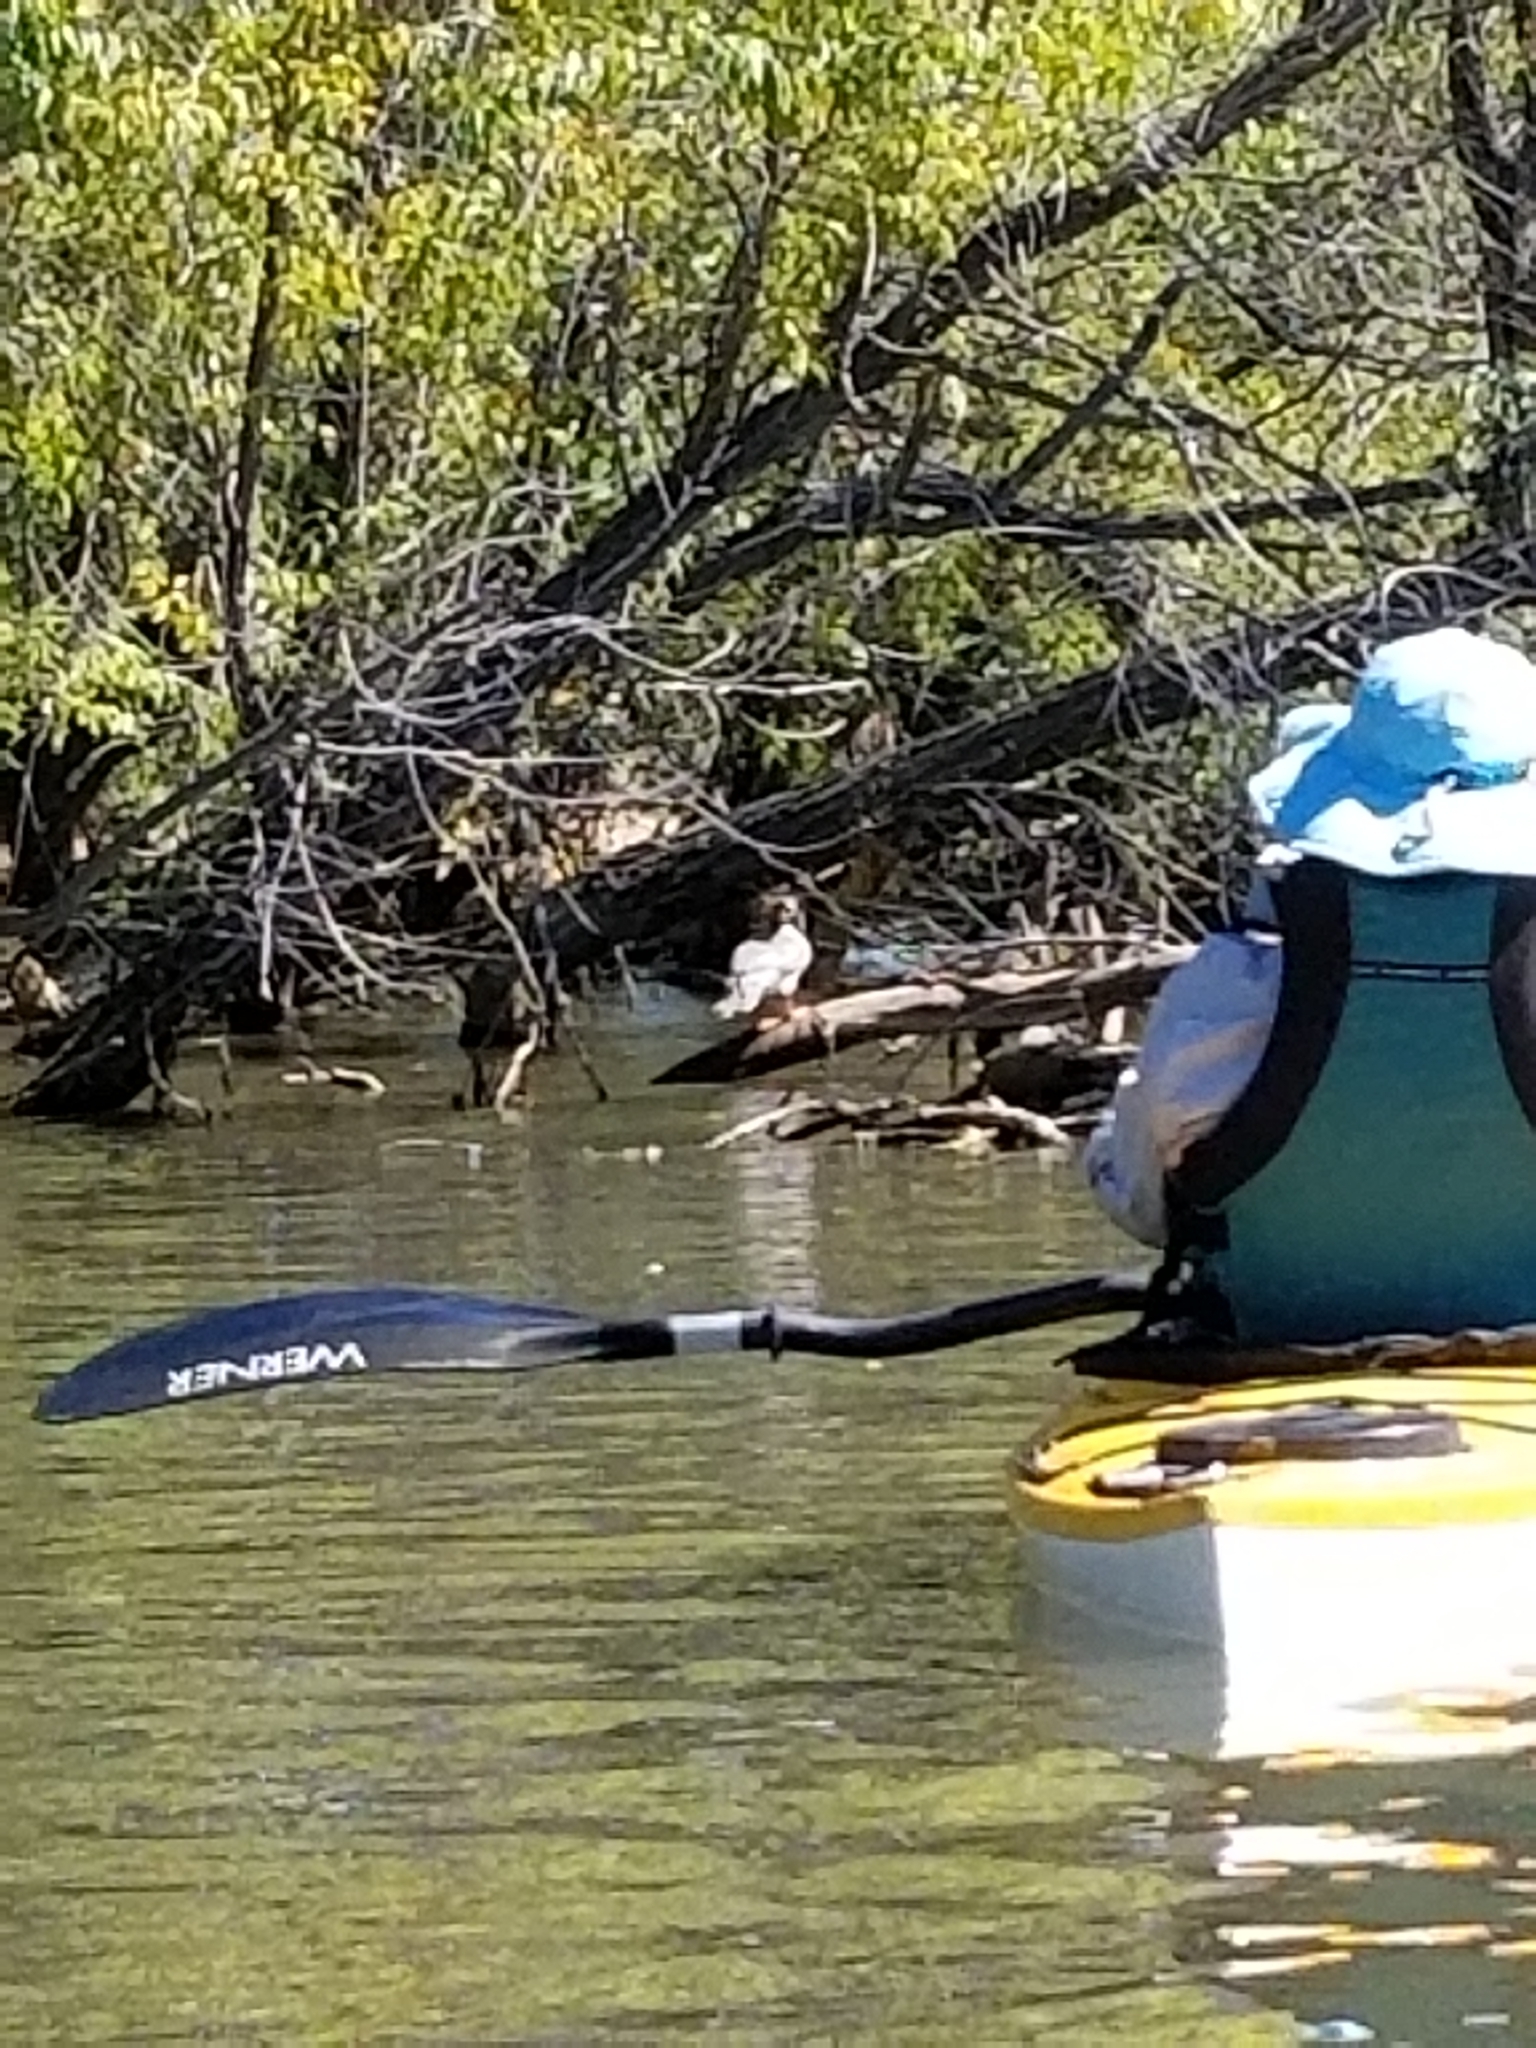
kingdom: Animalia
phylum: Chordata
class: Aves
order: Anseriformes
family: Anatidae
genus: Mergus
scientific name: Mergus merganser
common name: Common merganser
